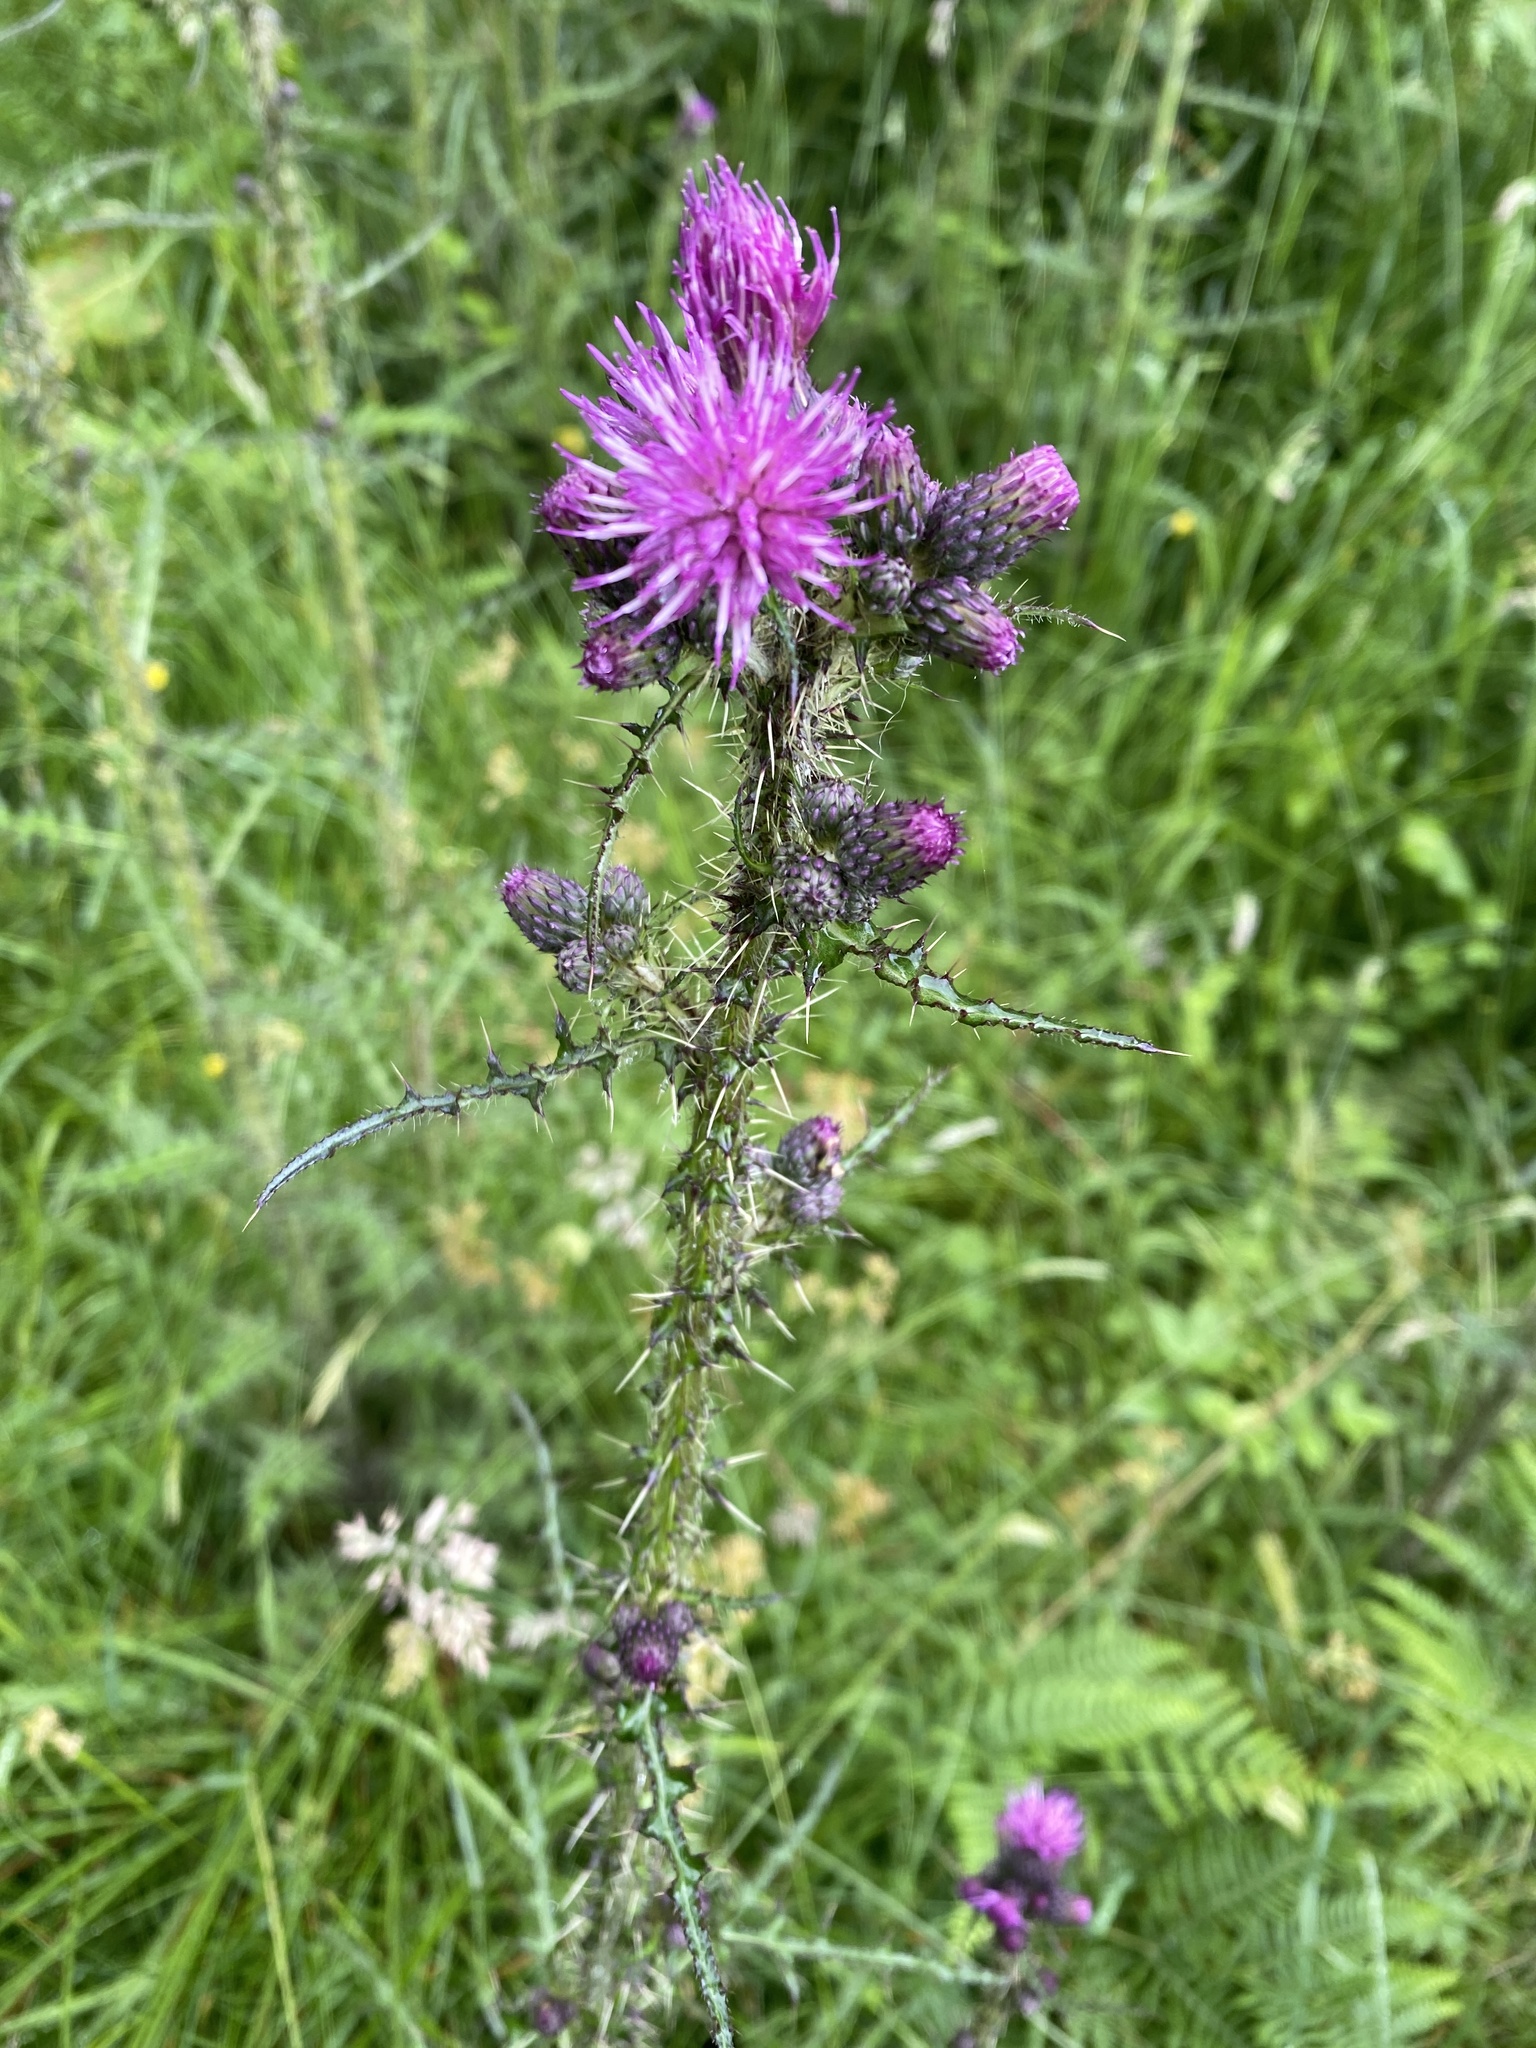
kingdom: Plantae
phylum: Tracheophyta
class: Magnoliopsida
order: Asterales
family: Asteraceae
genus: Cirsium
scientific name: Cirsium palustre
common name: Marsh thistle
